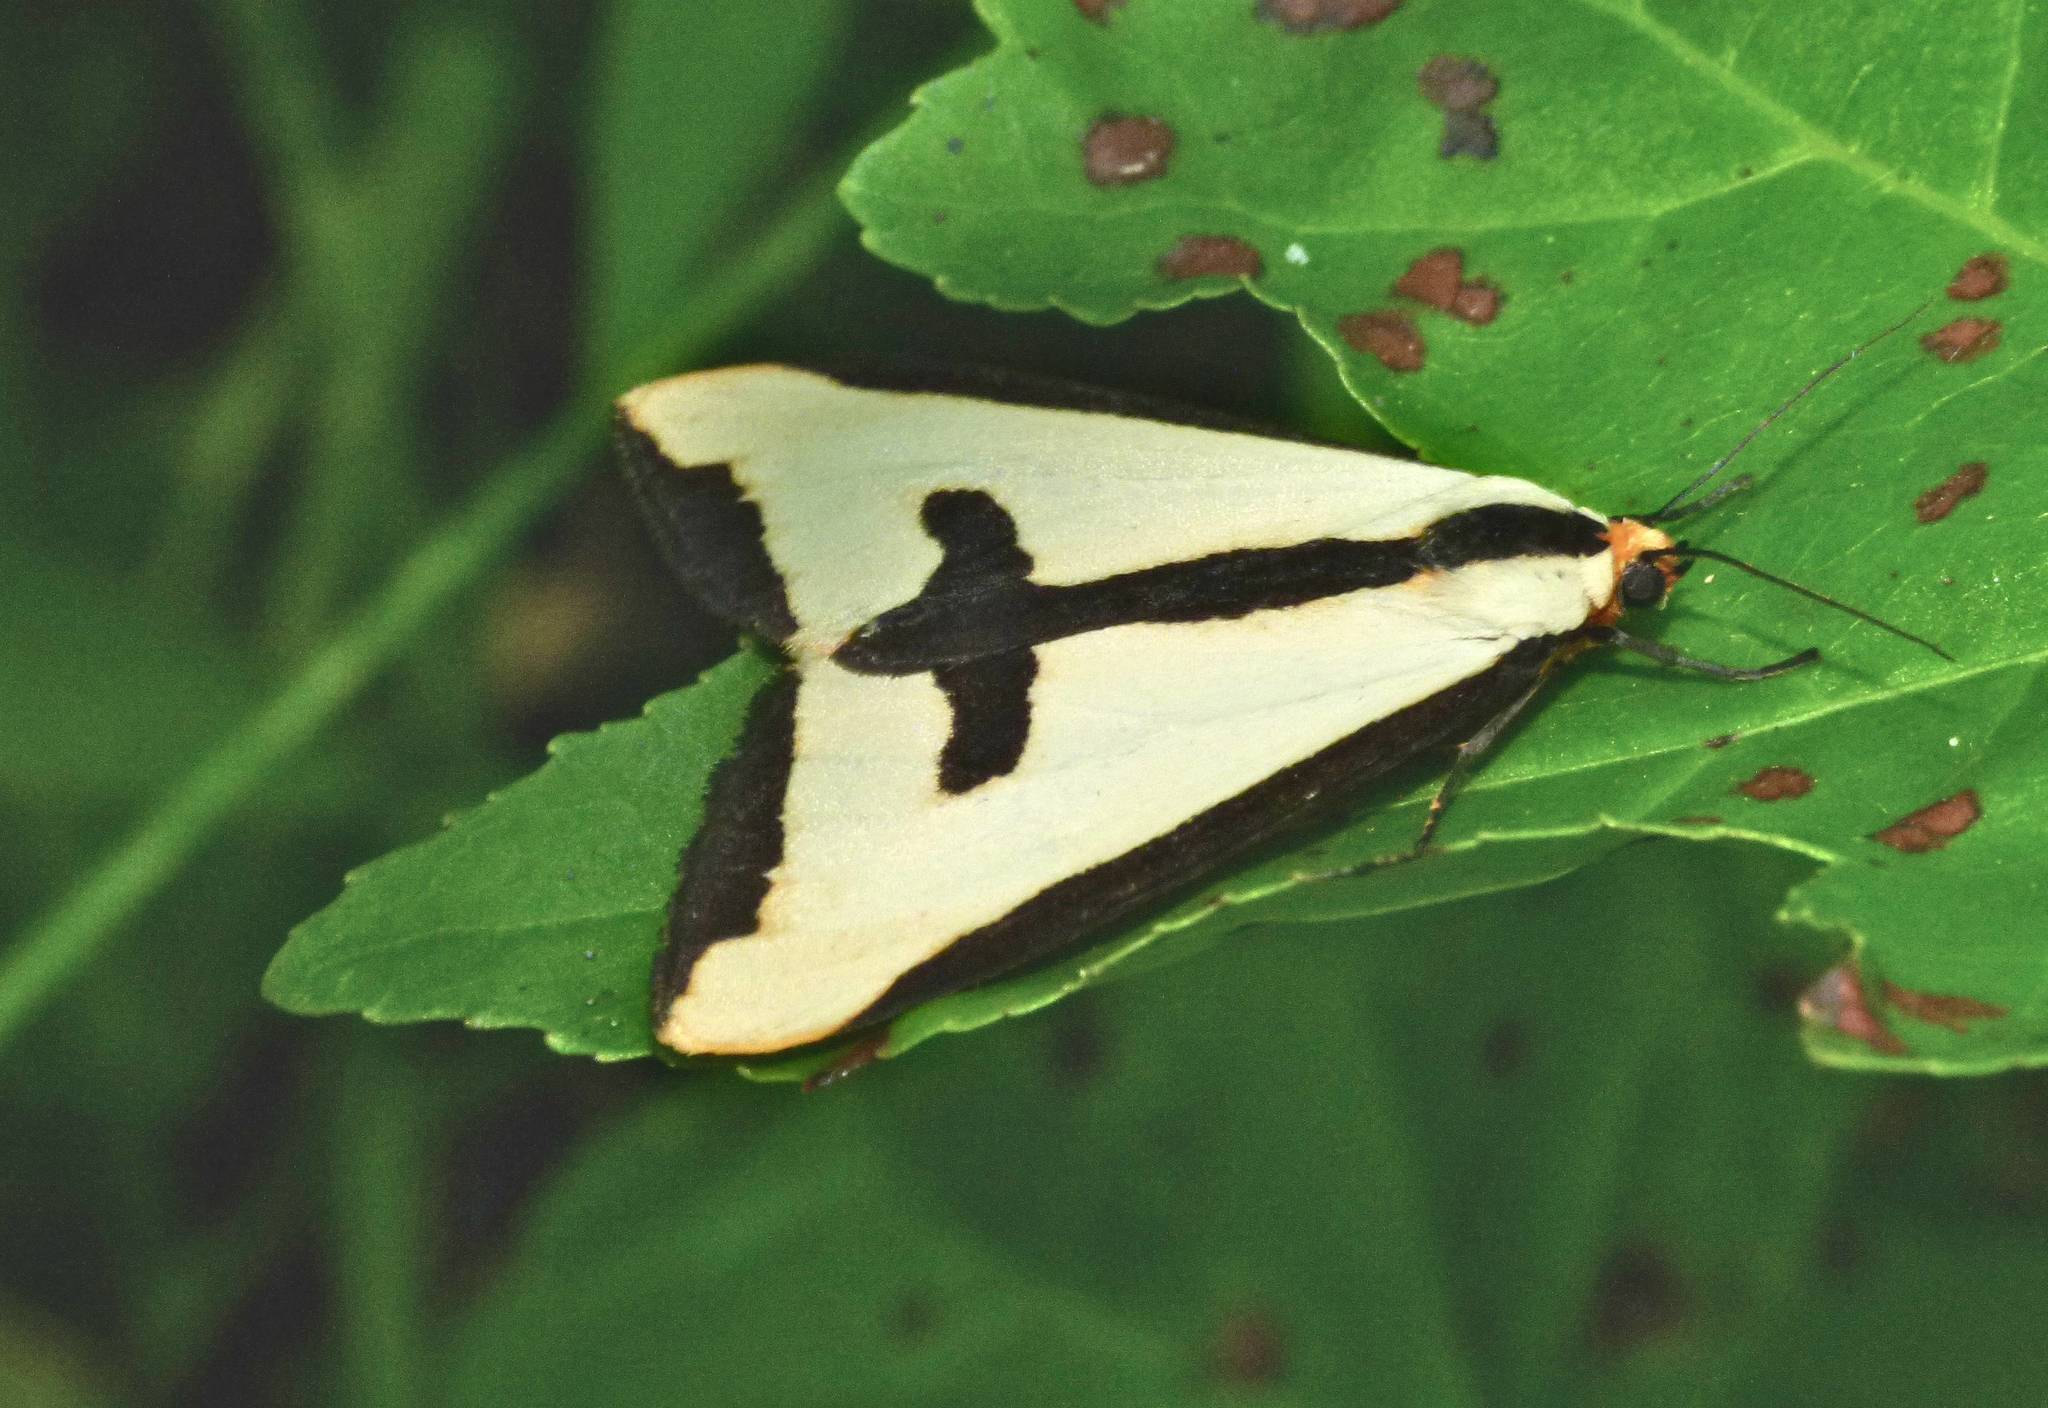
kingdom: Animalia
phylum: Arthropoda
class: Insecta
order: Lepidoptera
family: Erebidae
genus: Haploa
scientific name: Haploa clymene
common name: Clymene moth
